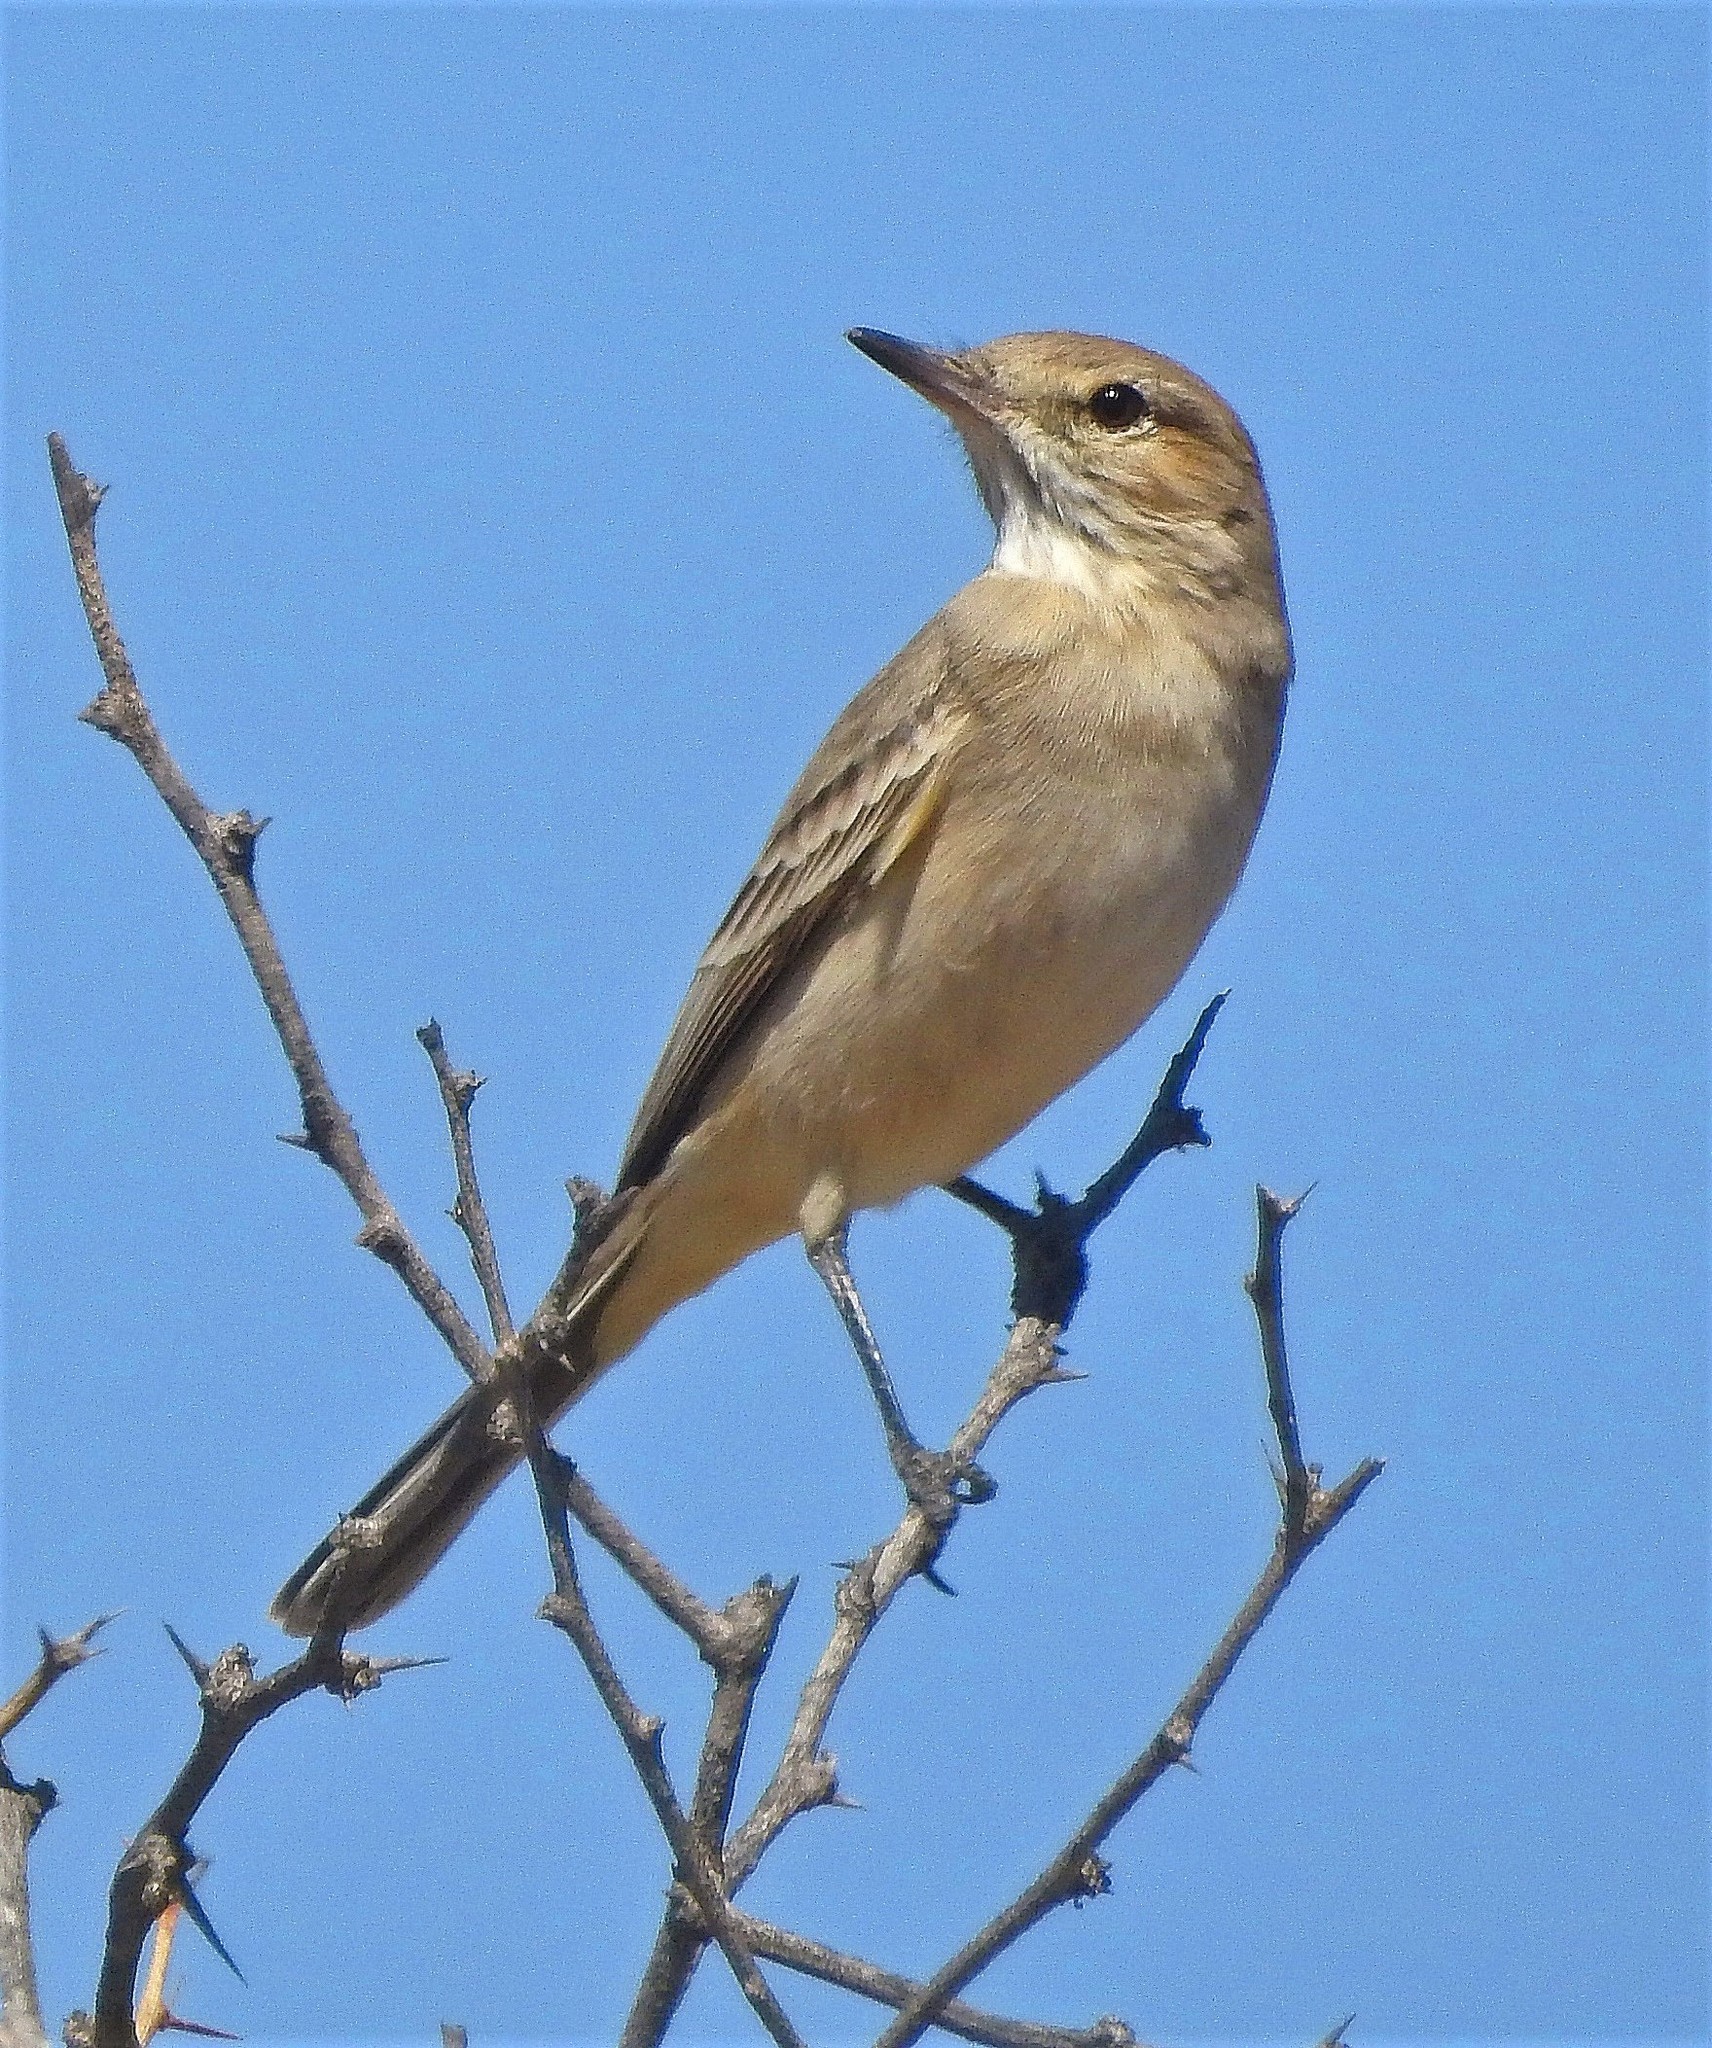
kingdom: Animalia
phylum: Chordata
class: Aves
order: Passeriformes
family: Tyrannidae
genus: Agriornis
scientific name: Agriornis murinus
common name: Lesser shrike-tyrant
